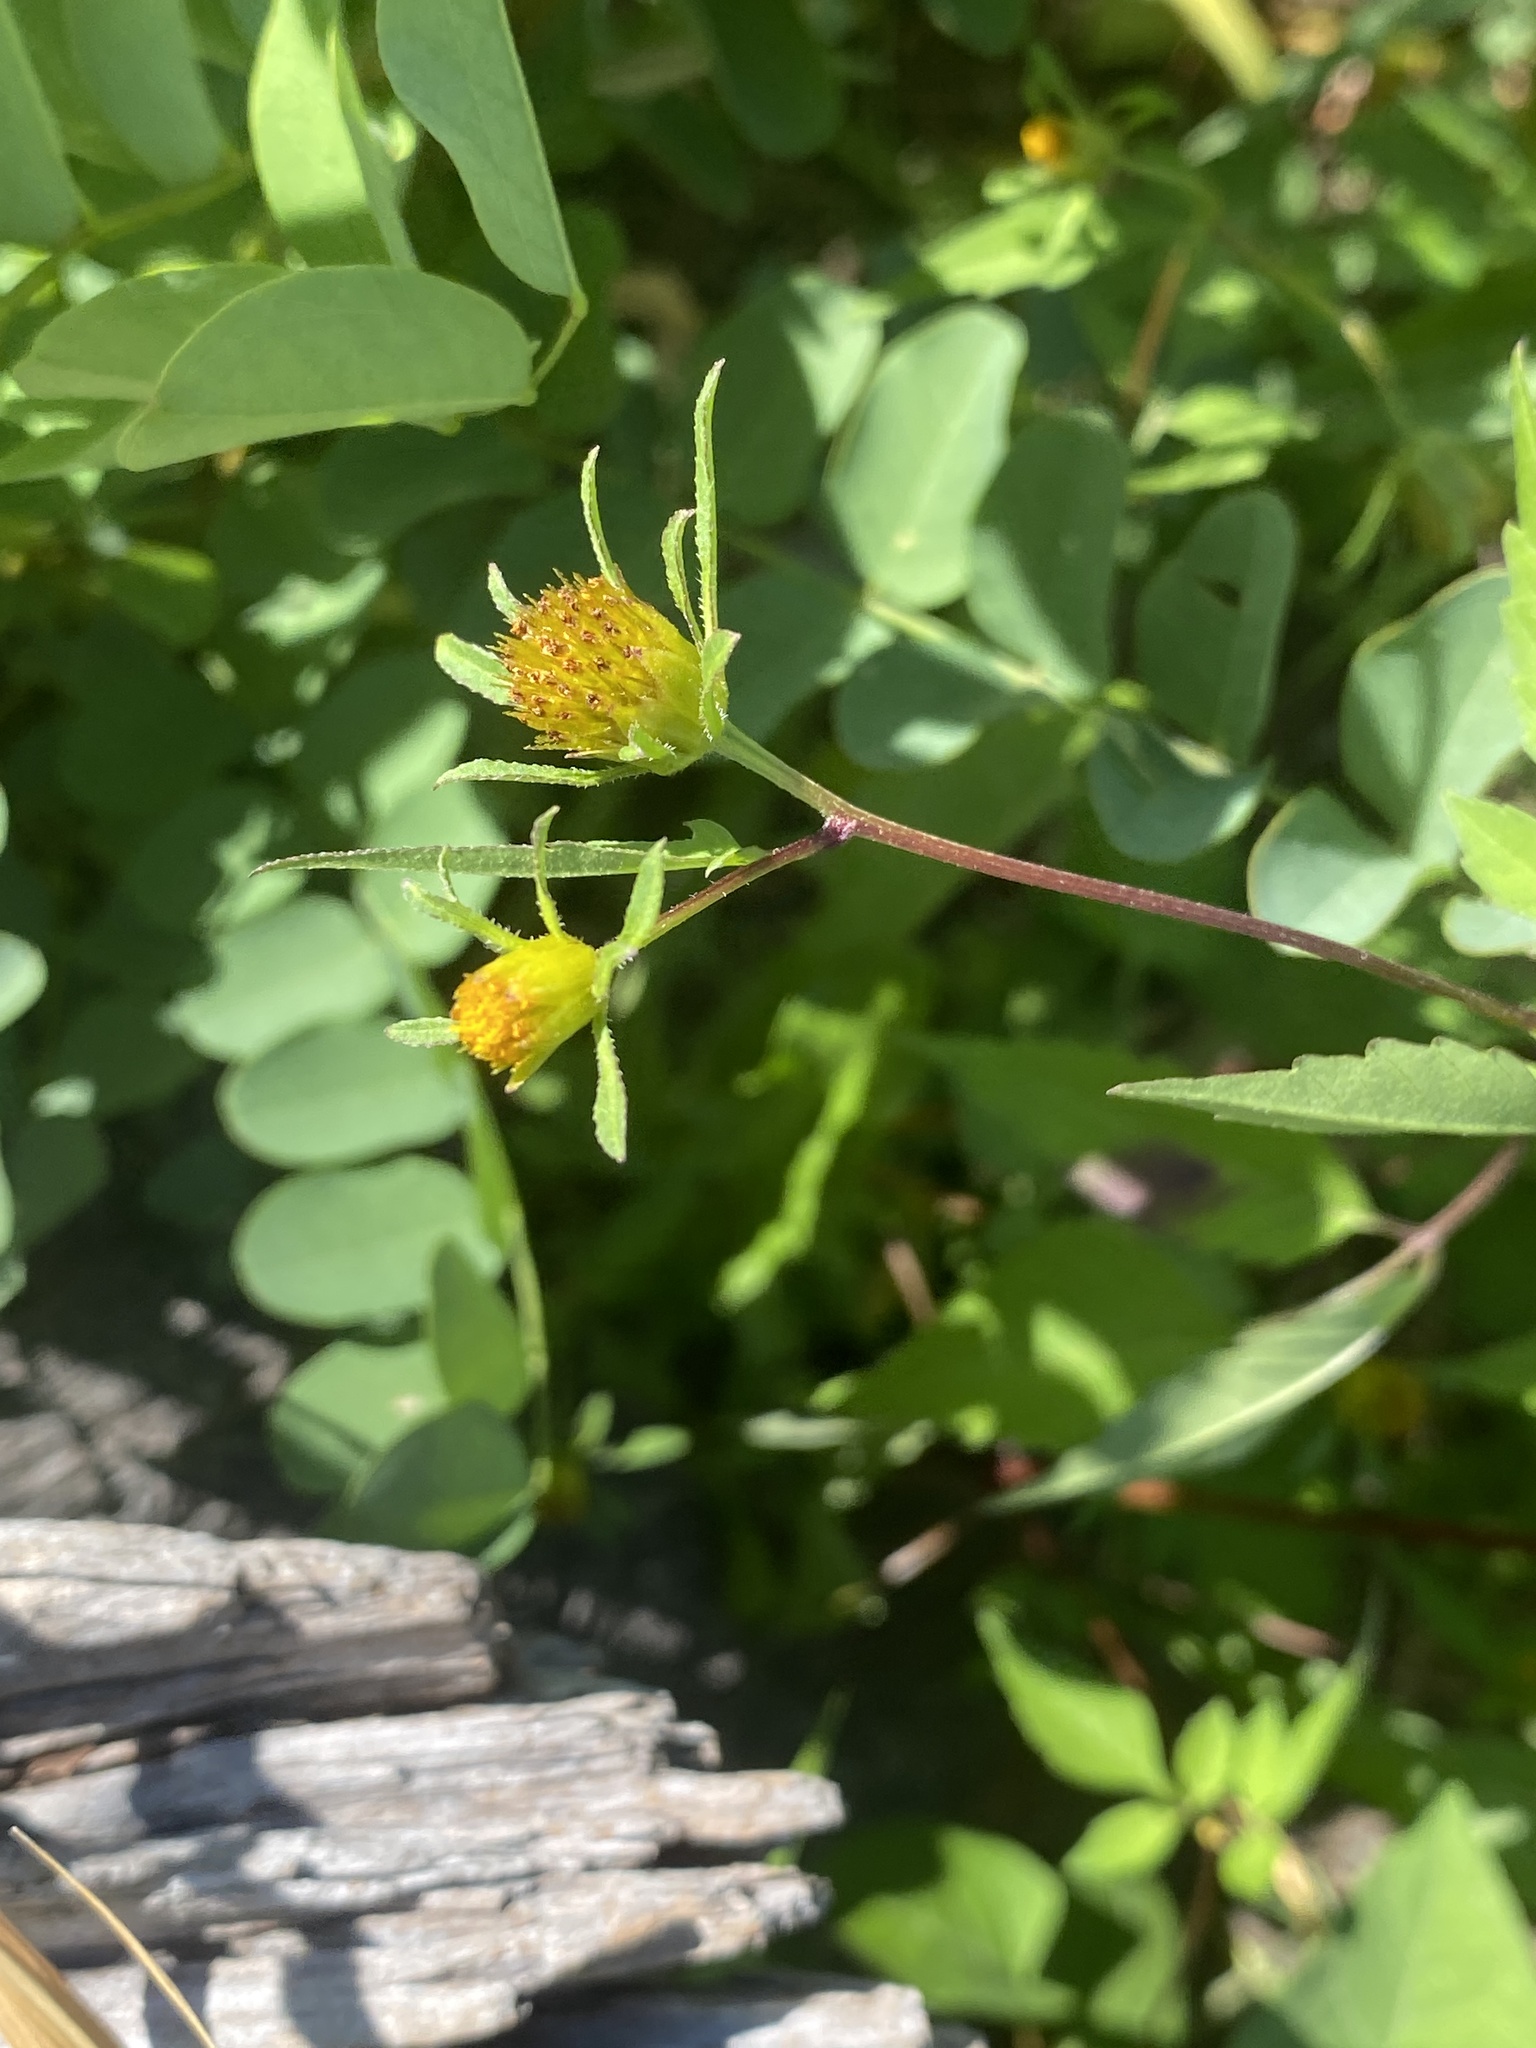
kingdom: Plantae
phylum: Tracheophyta
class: Magnoliopsida
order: Asterales
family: Asteraceae
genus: Bidens
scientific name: Bidens frondosa
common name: Beggarticks
